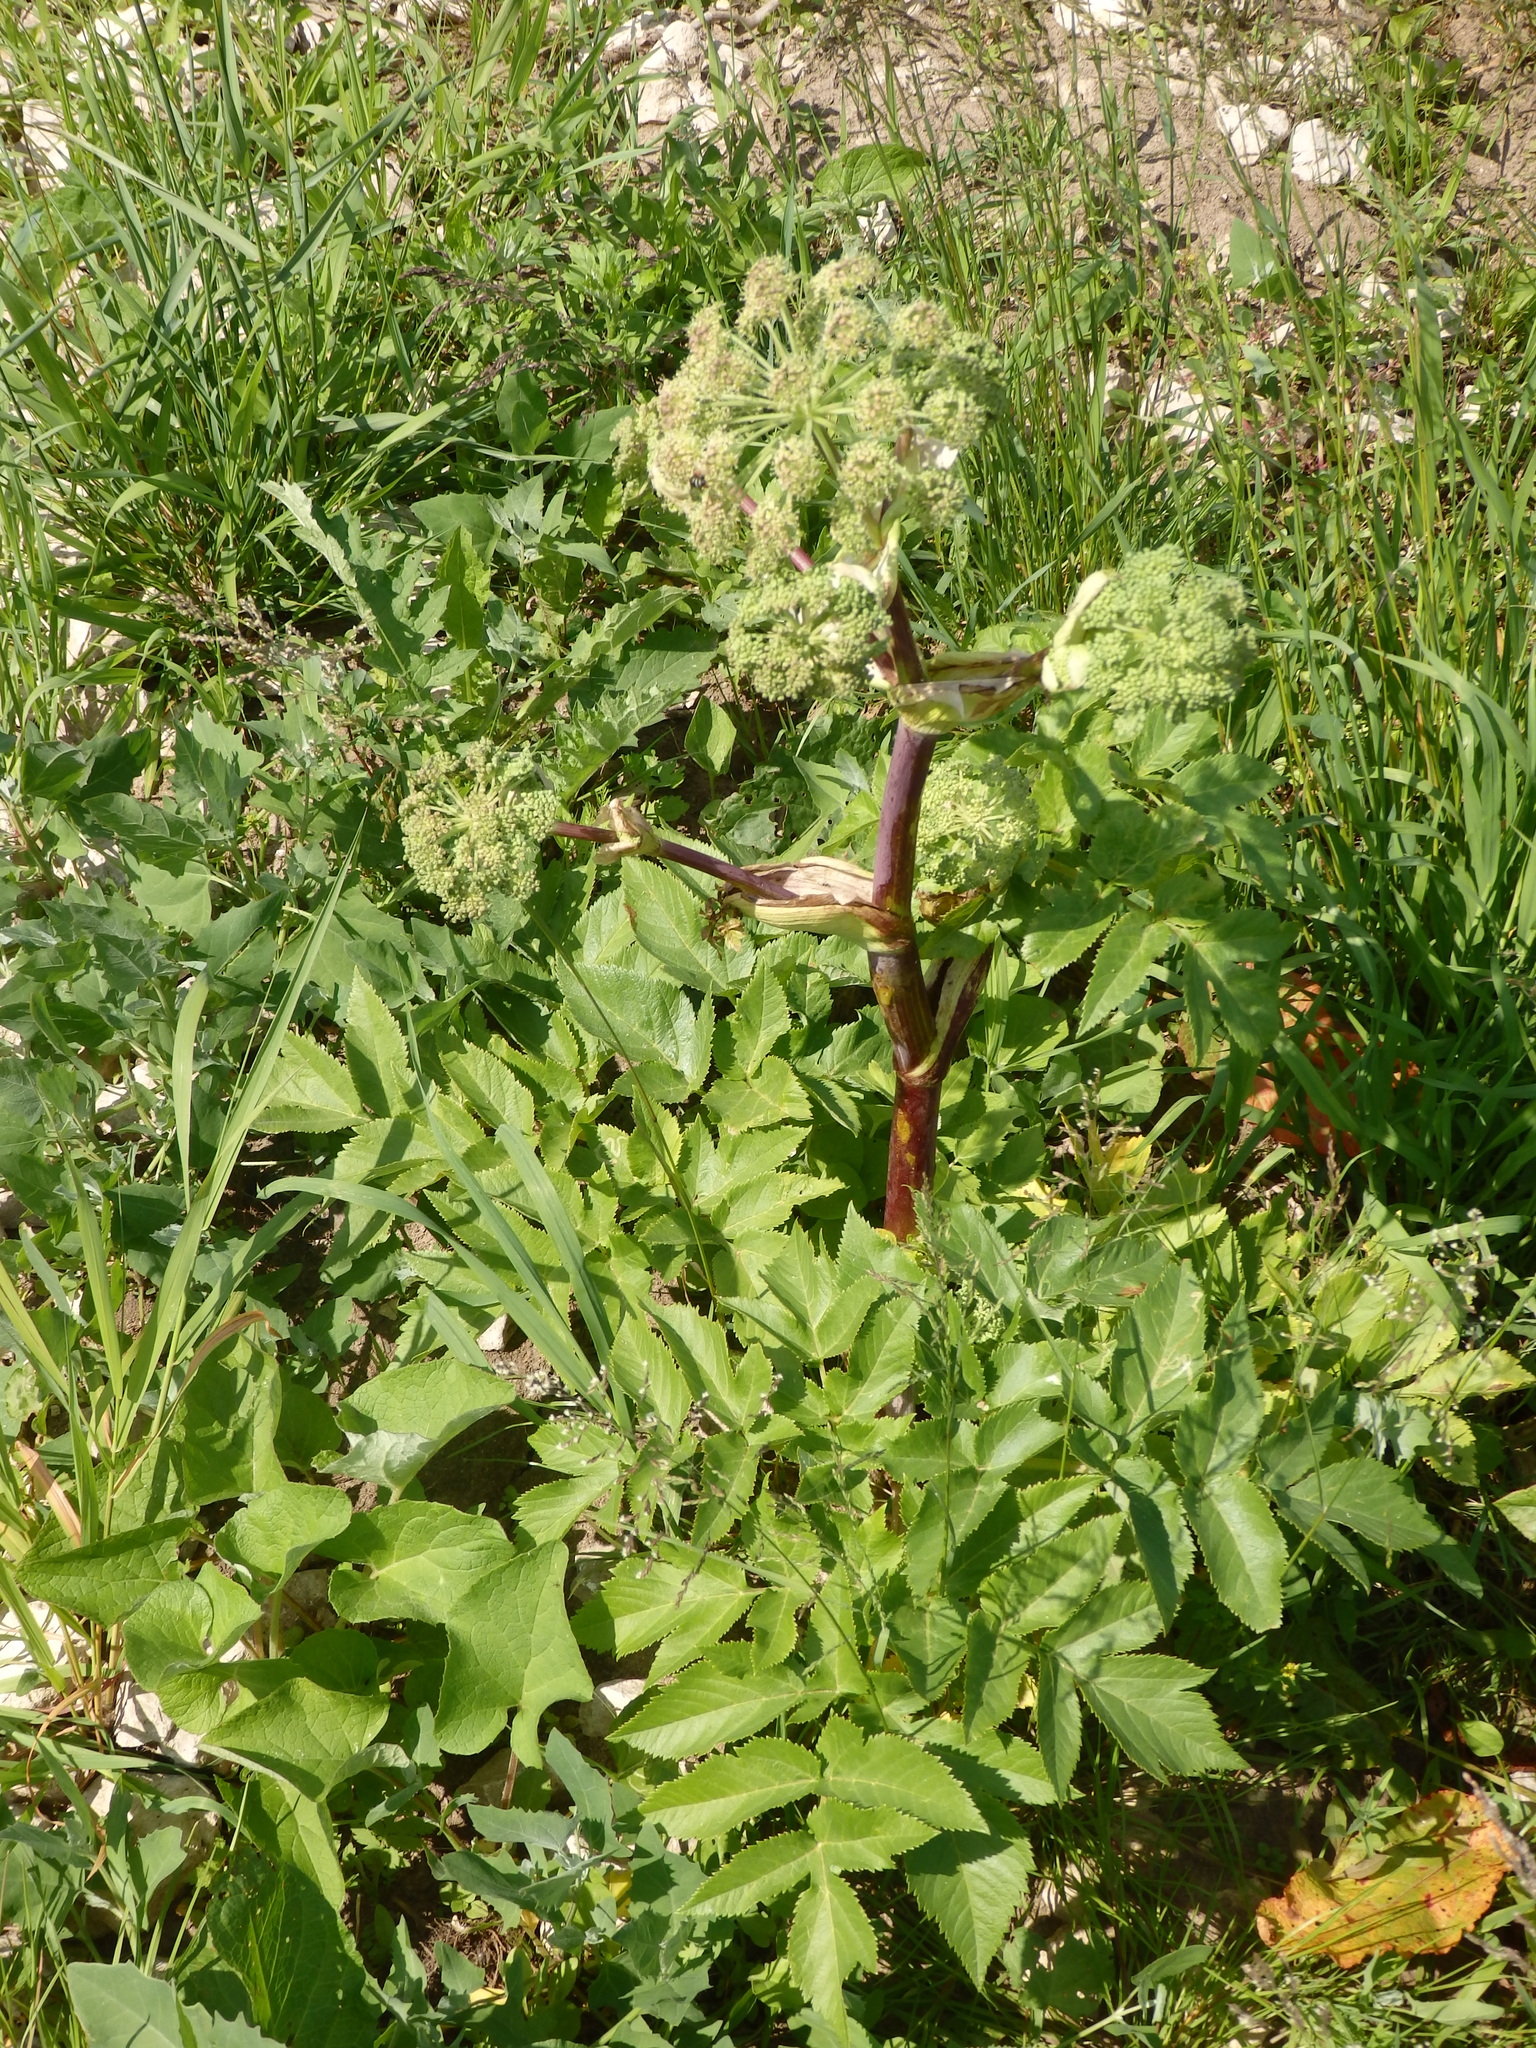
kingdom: Plantae
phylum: Tracheophyta
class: Magnoliopsida
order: Apiales
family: Apiaceae
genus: Angelica
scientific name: Angelica archangelica
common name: Garden angelica
